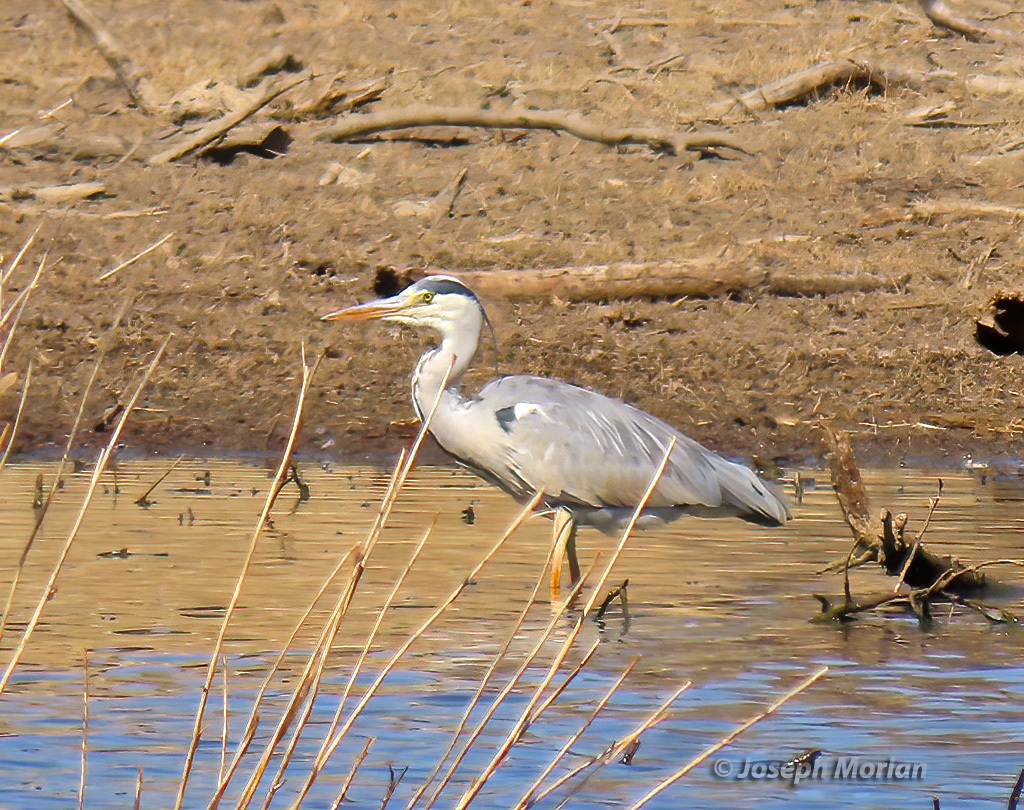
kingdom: Animalia
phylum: Chordata
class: Aves
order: Pelecaniformes
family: Ardeidae
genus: Ardea
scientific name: Ardea cinerea
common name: Grey heron
